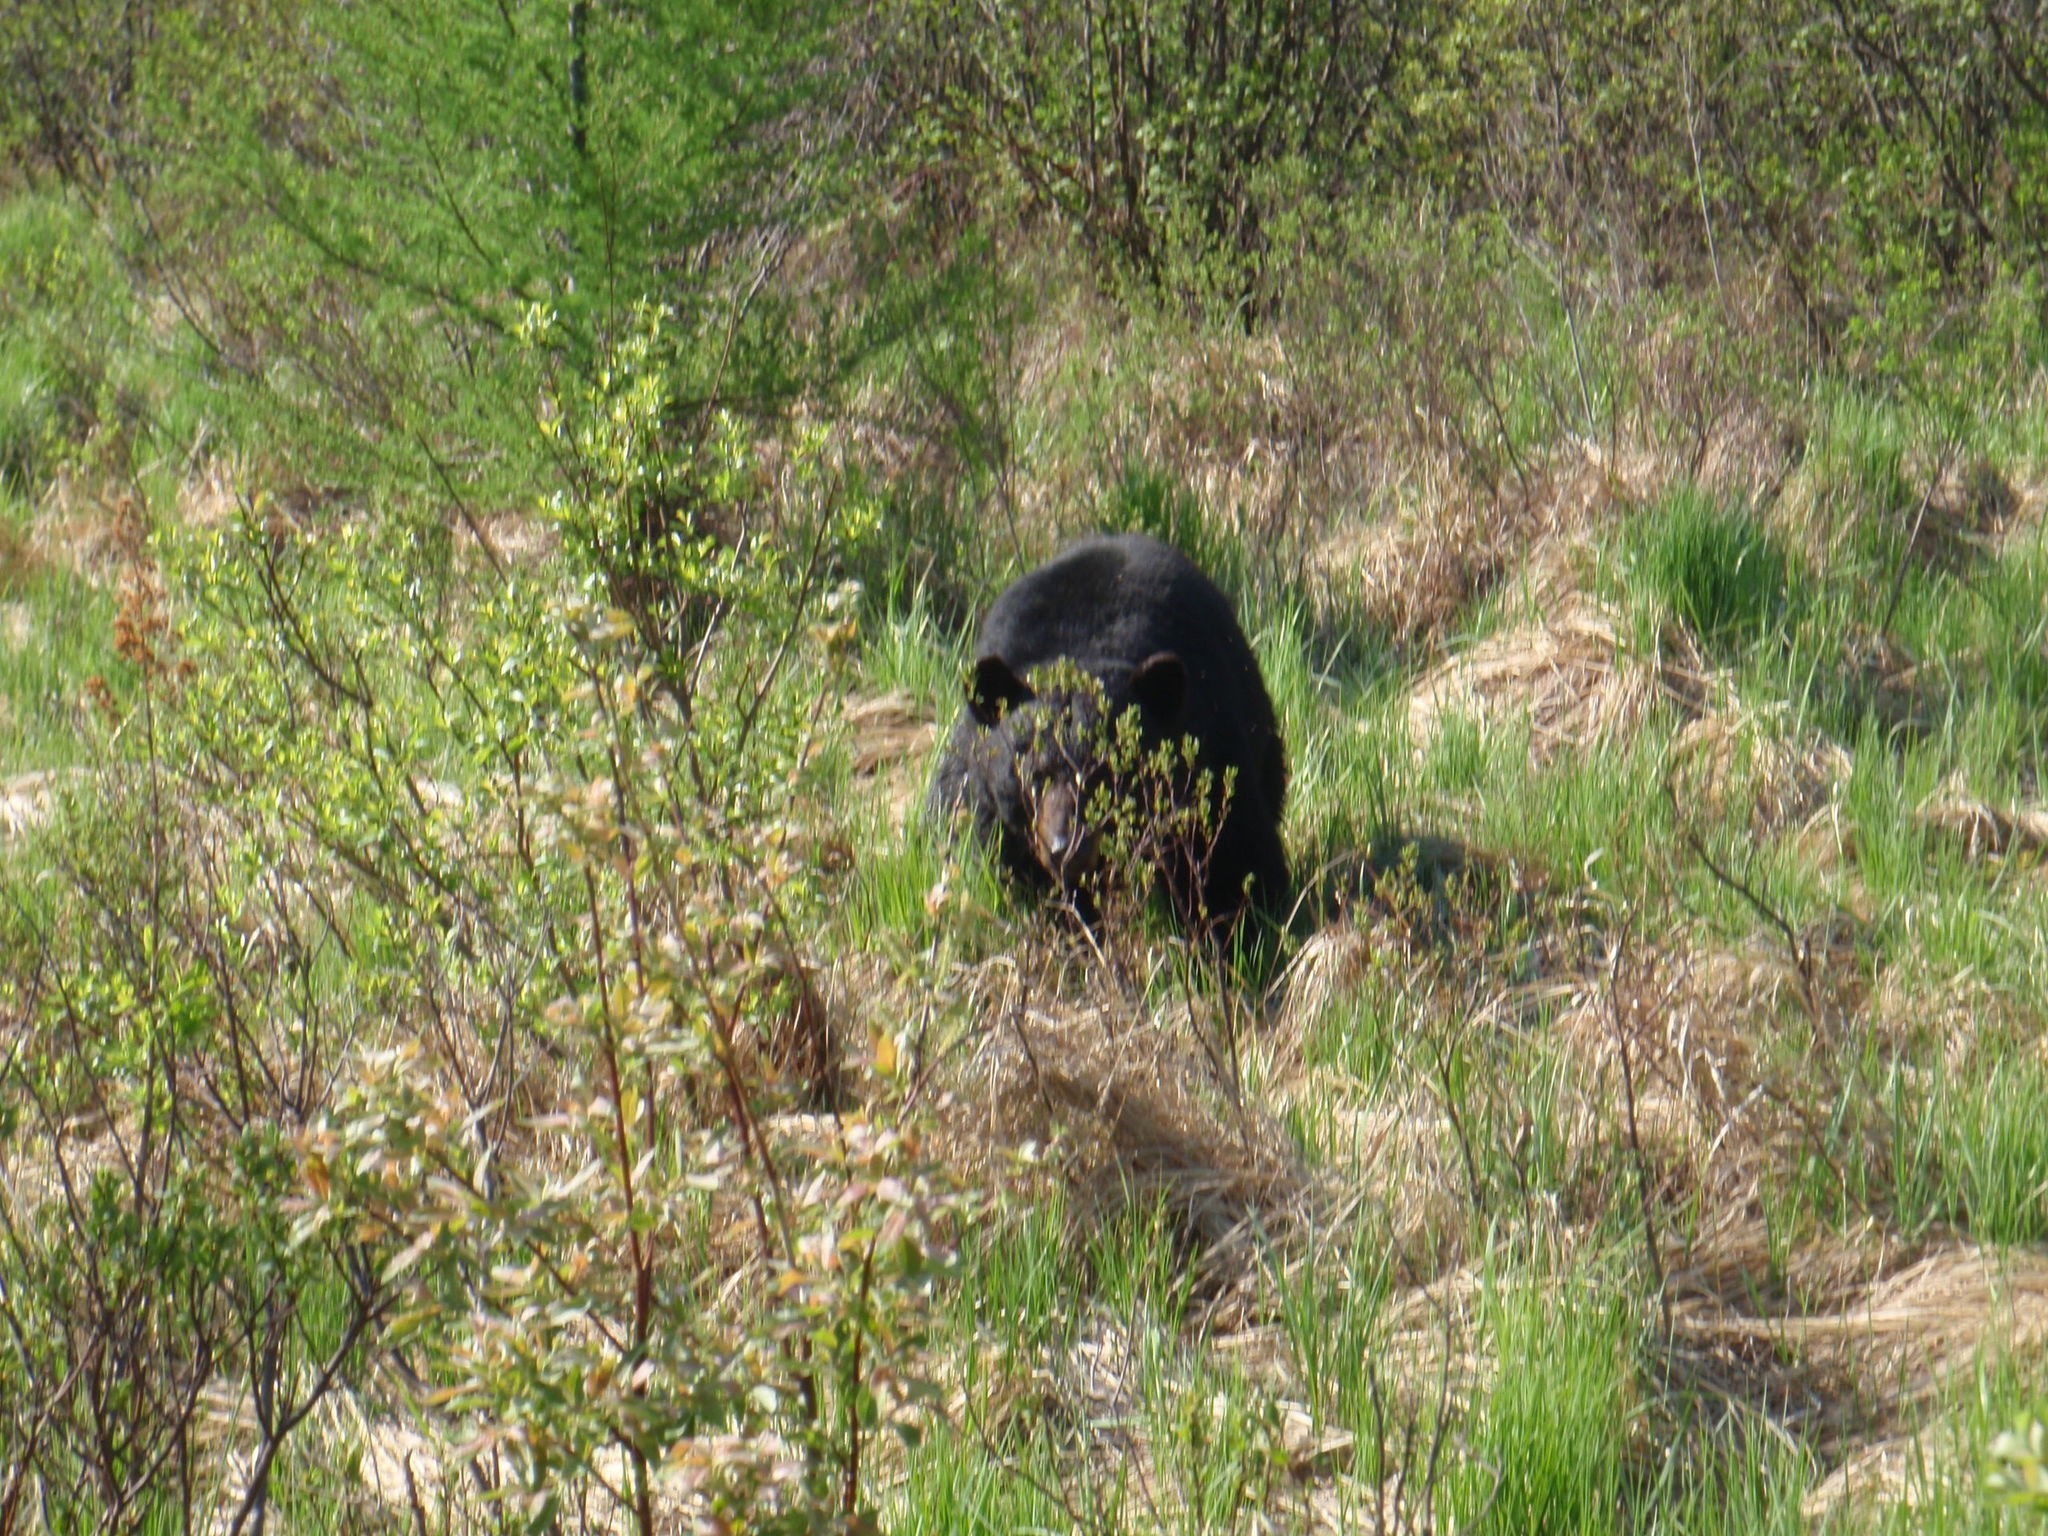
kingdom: Animalia
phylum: Chordata
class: Mammalia
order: Carnivora
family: Ursidae
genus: Ursus
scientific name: Ursus americanus
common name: American black bear
